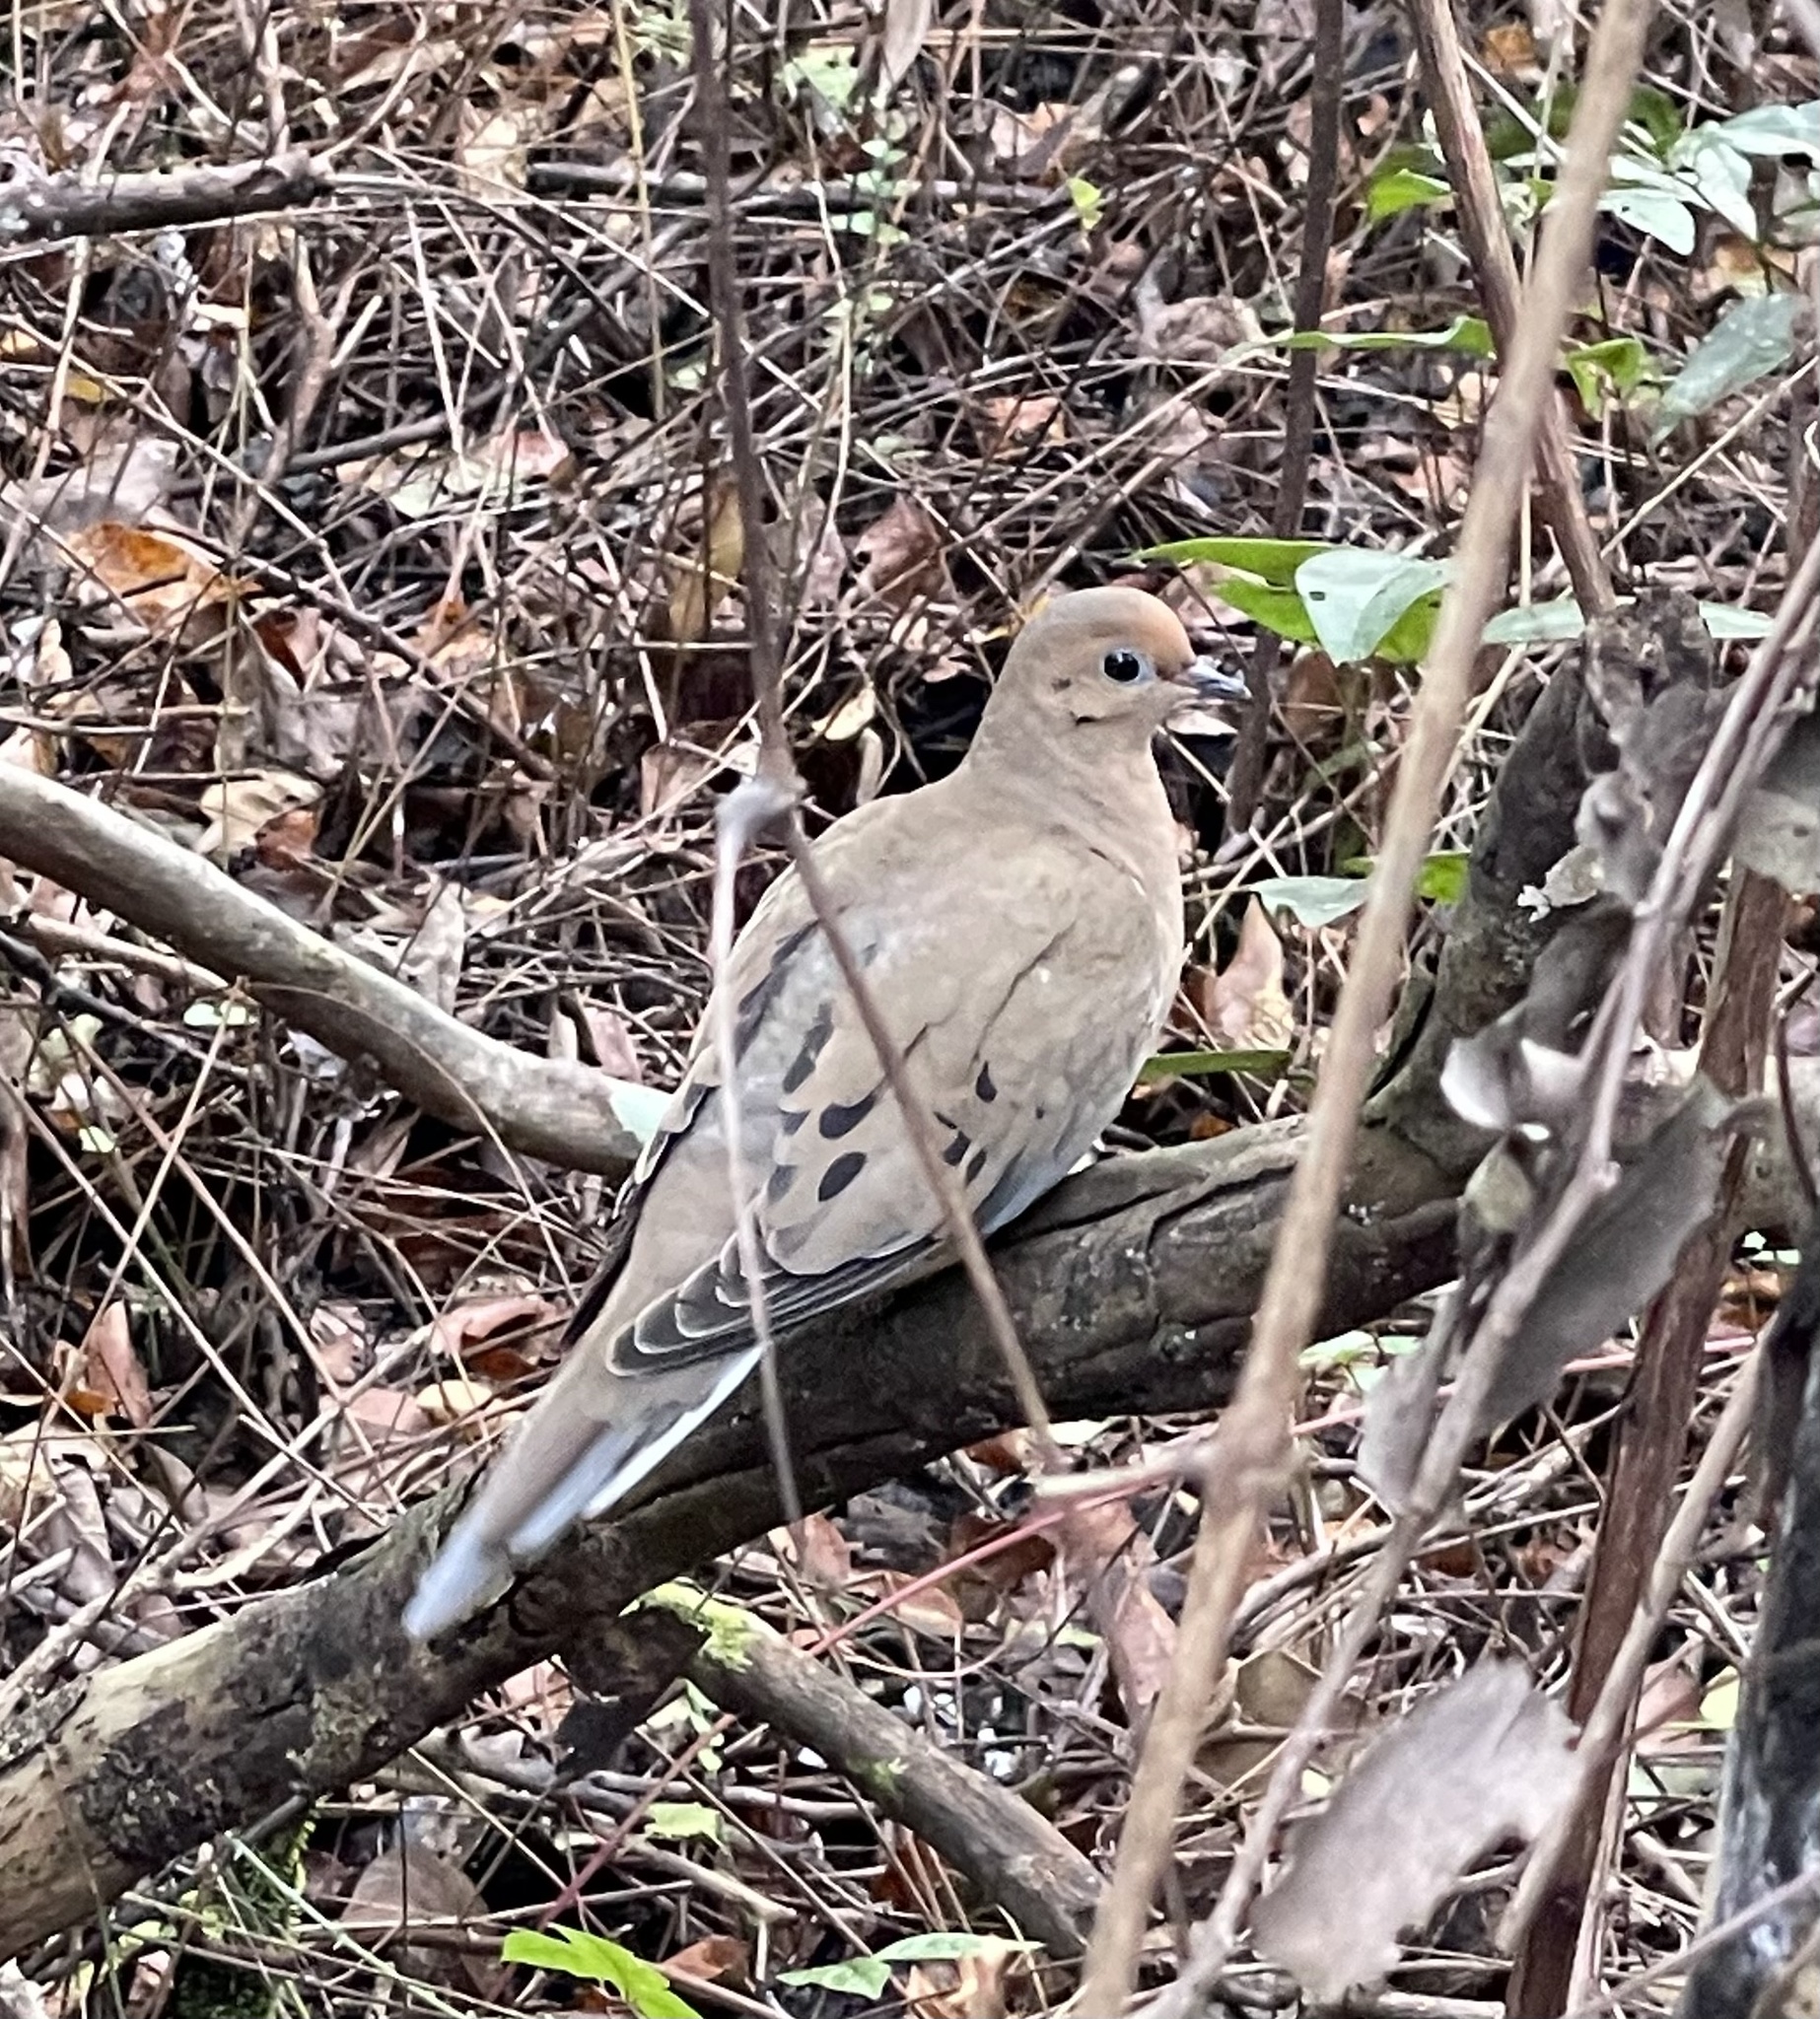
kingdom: Animalia
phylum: Chordata
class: Aves
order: Columbiformes
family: Columbidae
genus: Zenaida
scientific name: Zenaida macroura
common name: Mourning dove
